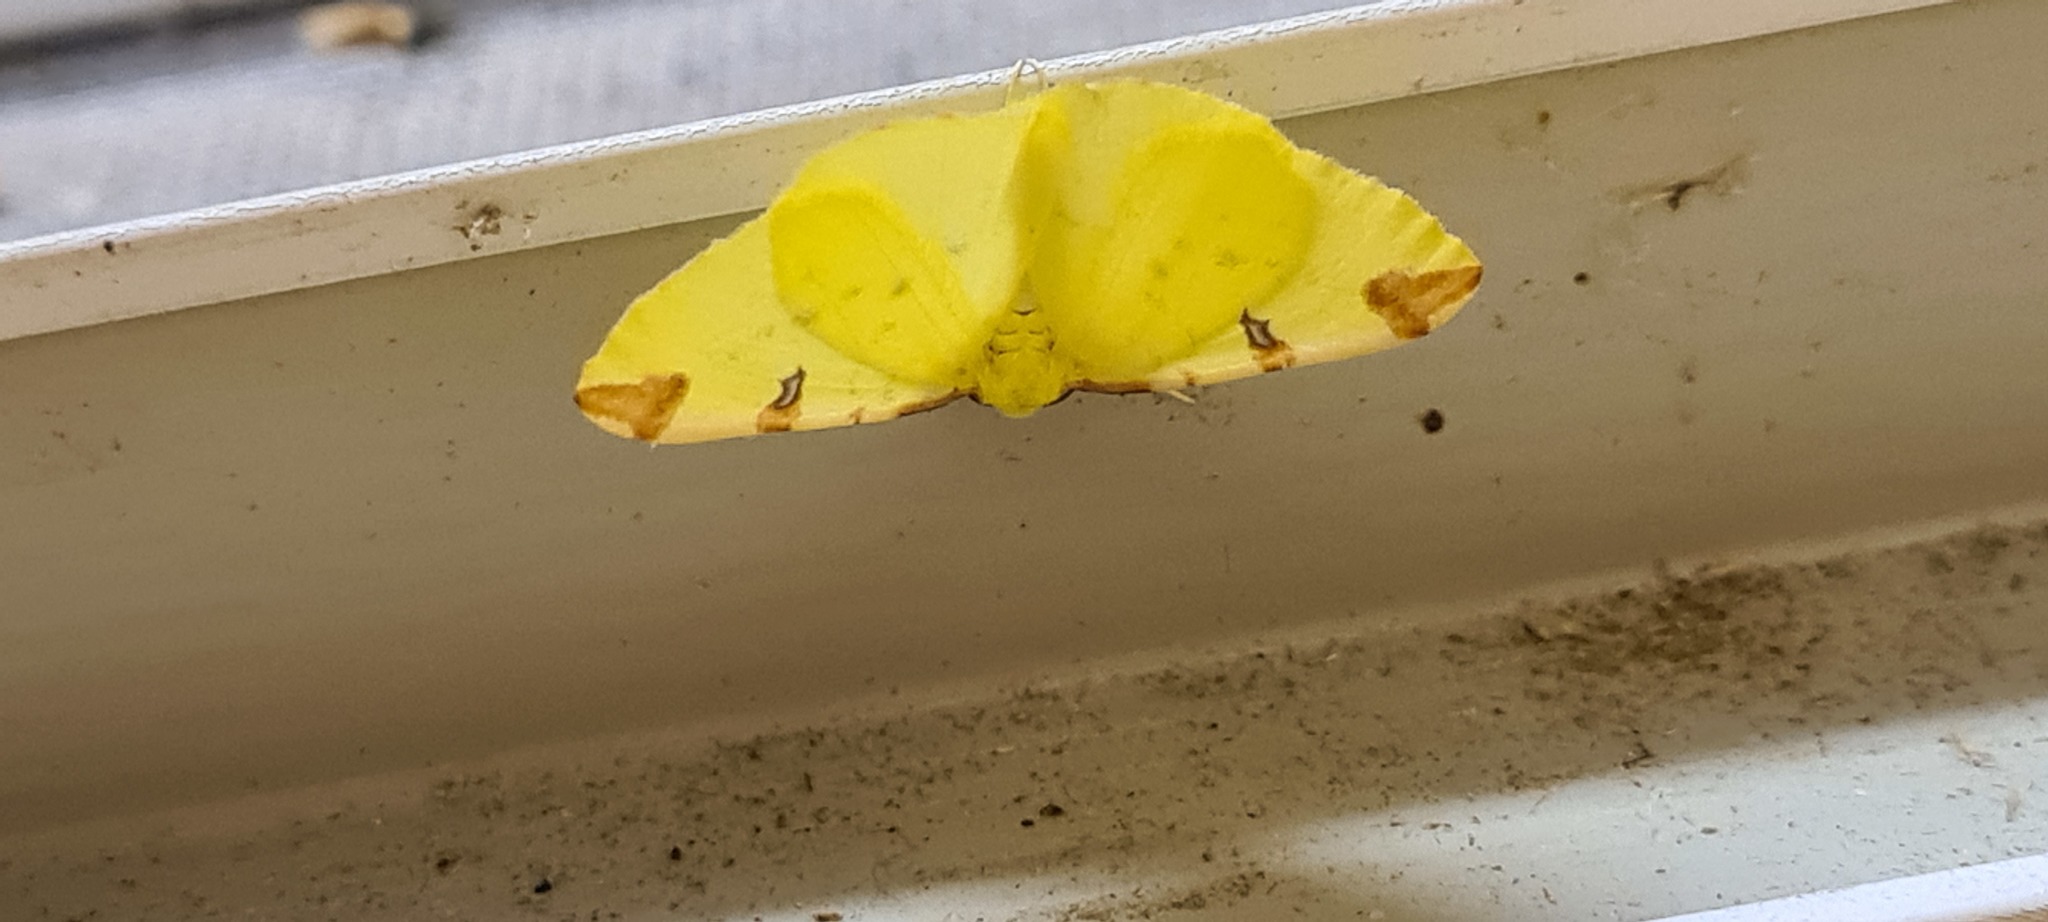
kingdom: Animalia
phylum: Arthropoda
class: Insecta
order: Lepidoptera
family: Geometridae
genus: Opisthograptis
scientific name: Opisthograptis luteolata
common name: Brimstone moth
